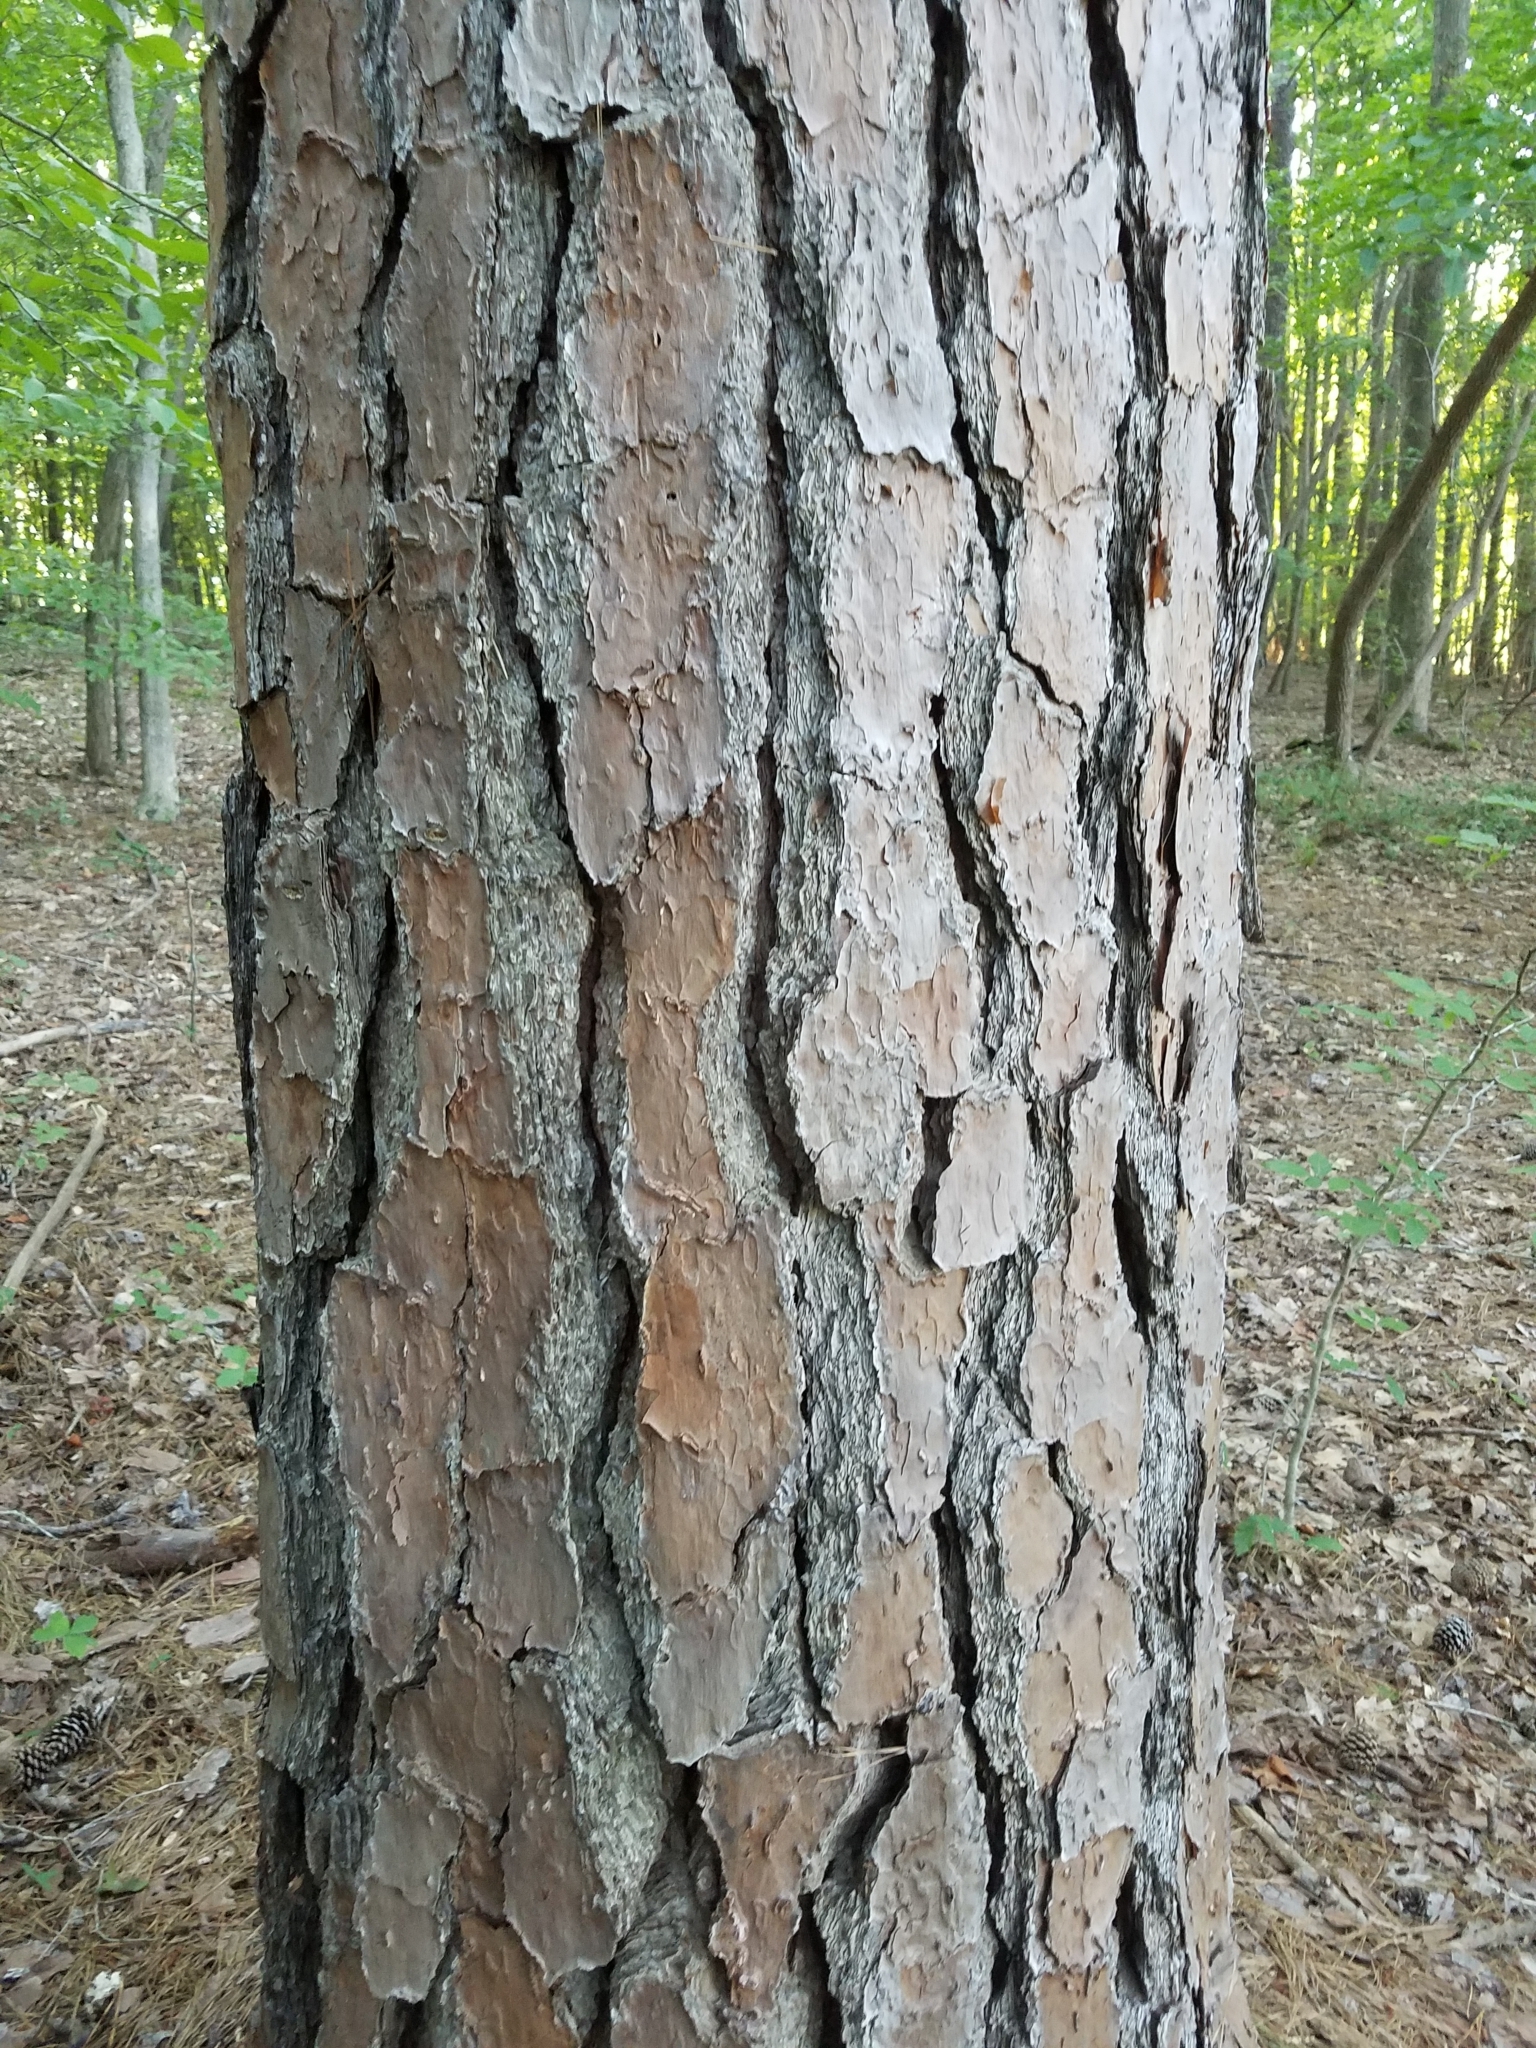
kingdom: Plantae
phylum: Tracheophyta
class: Pinopsida
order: Pinales
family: Pinaceae
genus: Pinus
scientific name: Pinus taeda
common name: Loblolly pine
